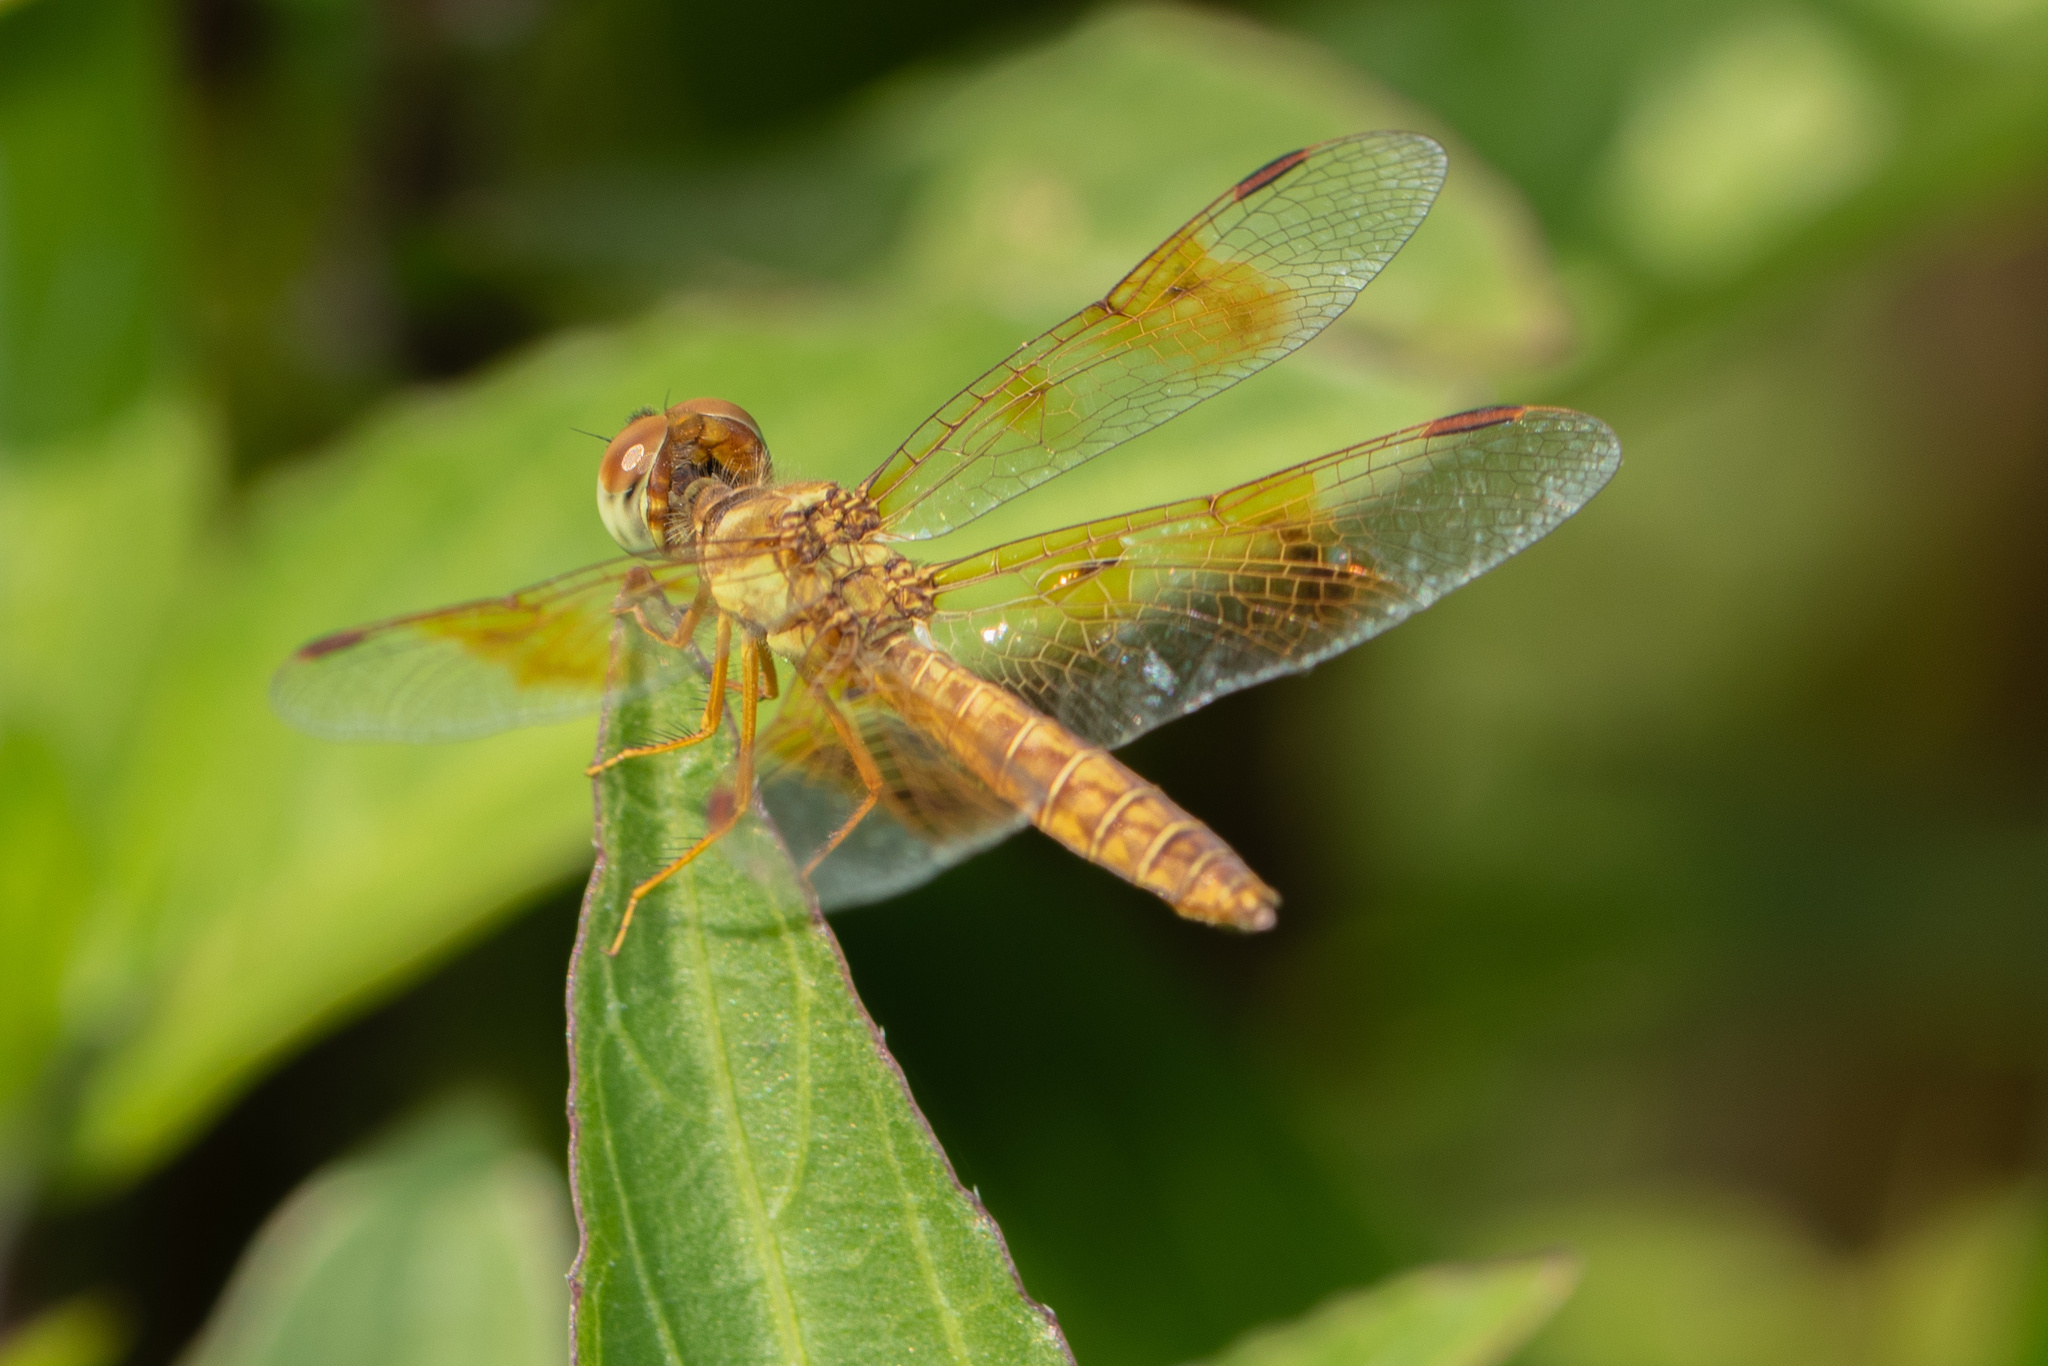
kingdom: Animalia
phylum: Arthropoda
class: Insecta
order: Odonata
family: Libellulidae
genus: Perithemis
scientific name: Perithemis tenera
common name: Eastern amberwing
